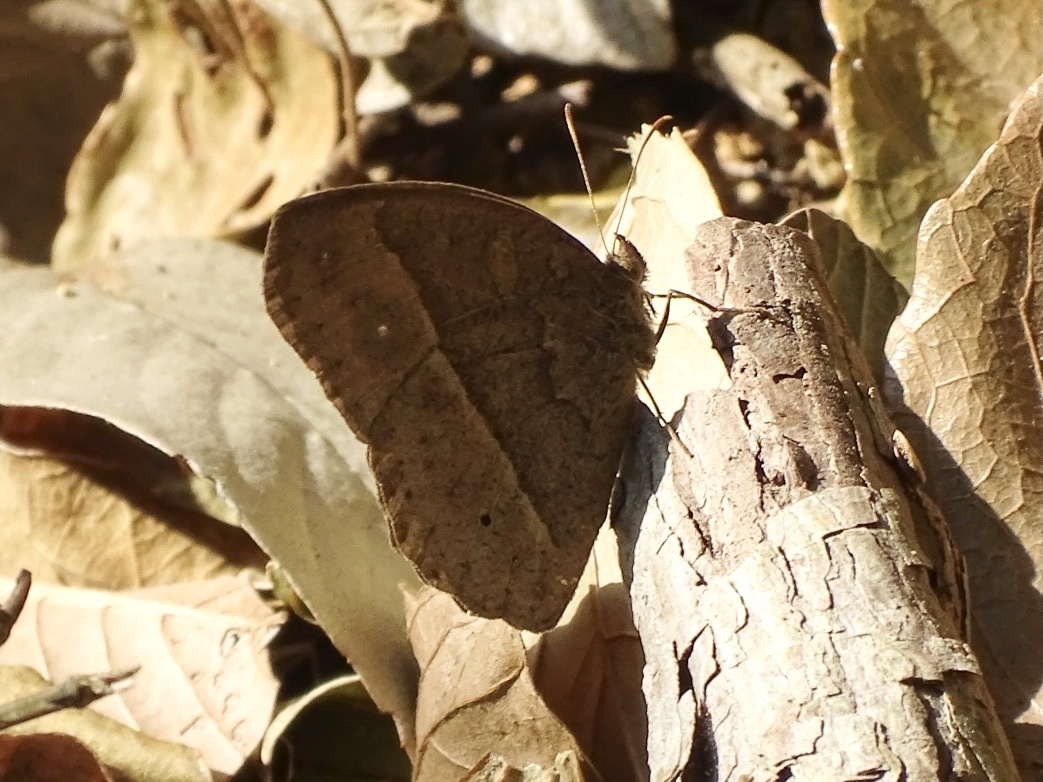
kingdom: Animalia
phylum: Arthropoda
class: Insecta
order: Lepidoptera
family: Nymphalidae
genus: Mycalesis
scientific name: Mycalesis horsfieldii
